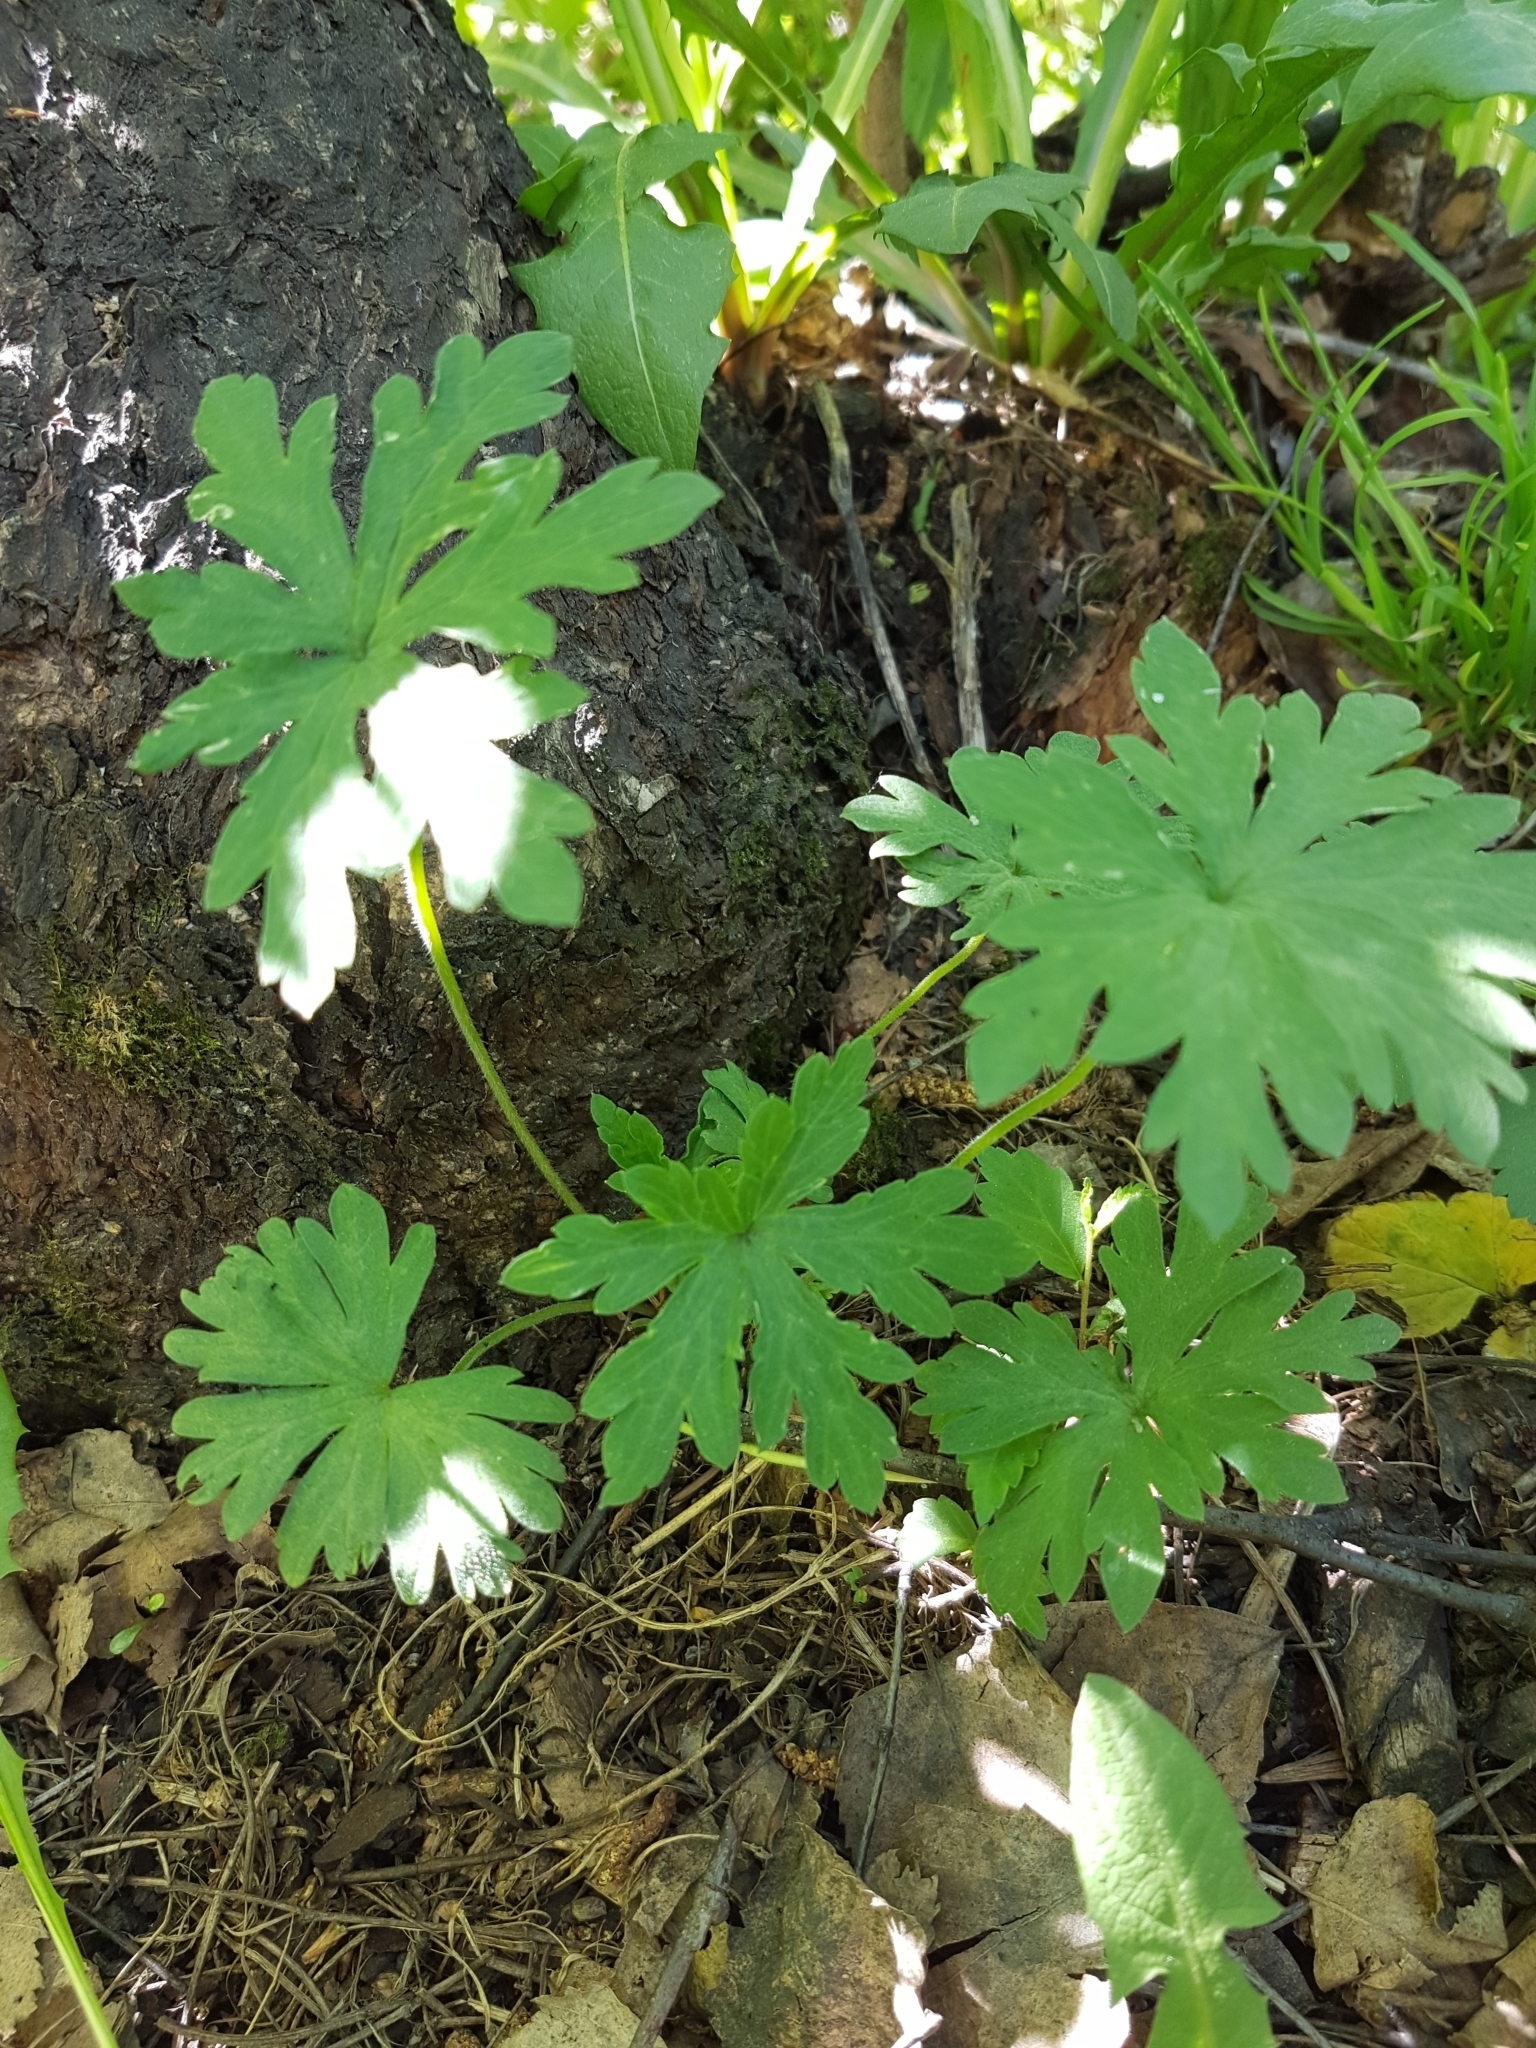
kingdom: Plantae
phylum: Tracheophyta
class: Magnoliopsida
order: Geraniales
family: Geraniaceae
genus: Geranium
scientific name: Geranium sibiricum
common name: Siberian crane's-bill
